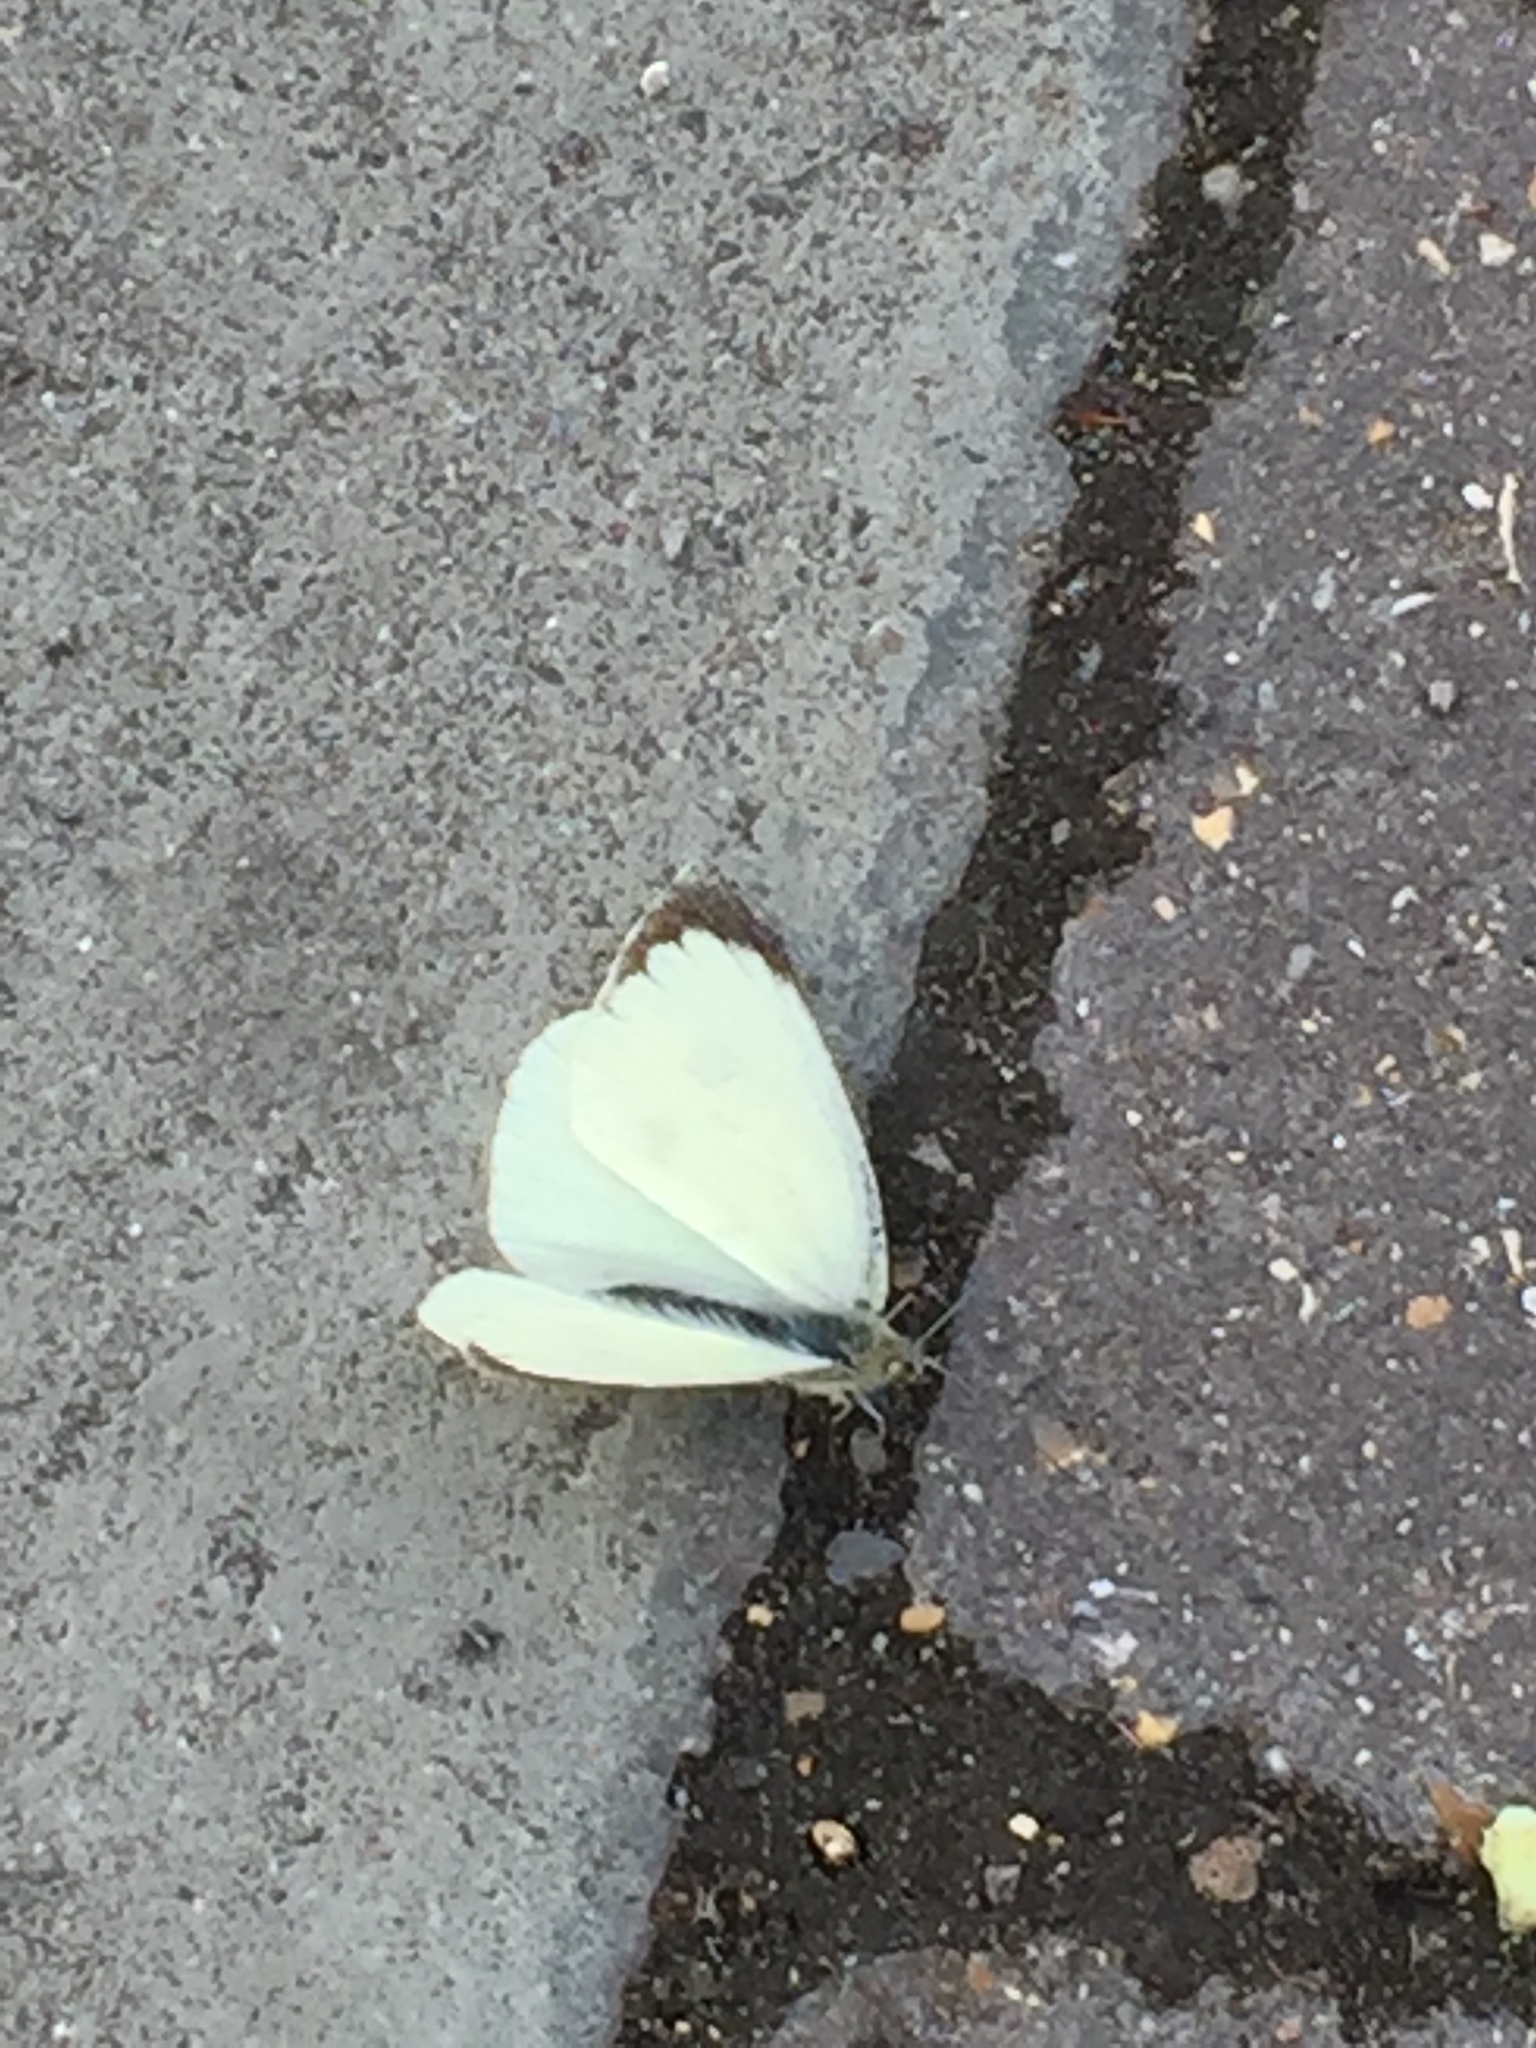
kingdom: Animalia
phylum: Arthropoda
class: Insecta
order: Lepidoptera
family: Pieridae
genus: Pieris
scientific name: Pieris brassicae
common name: Large white
